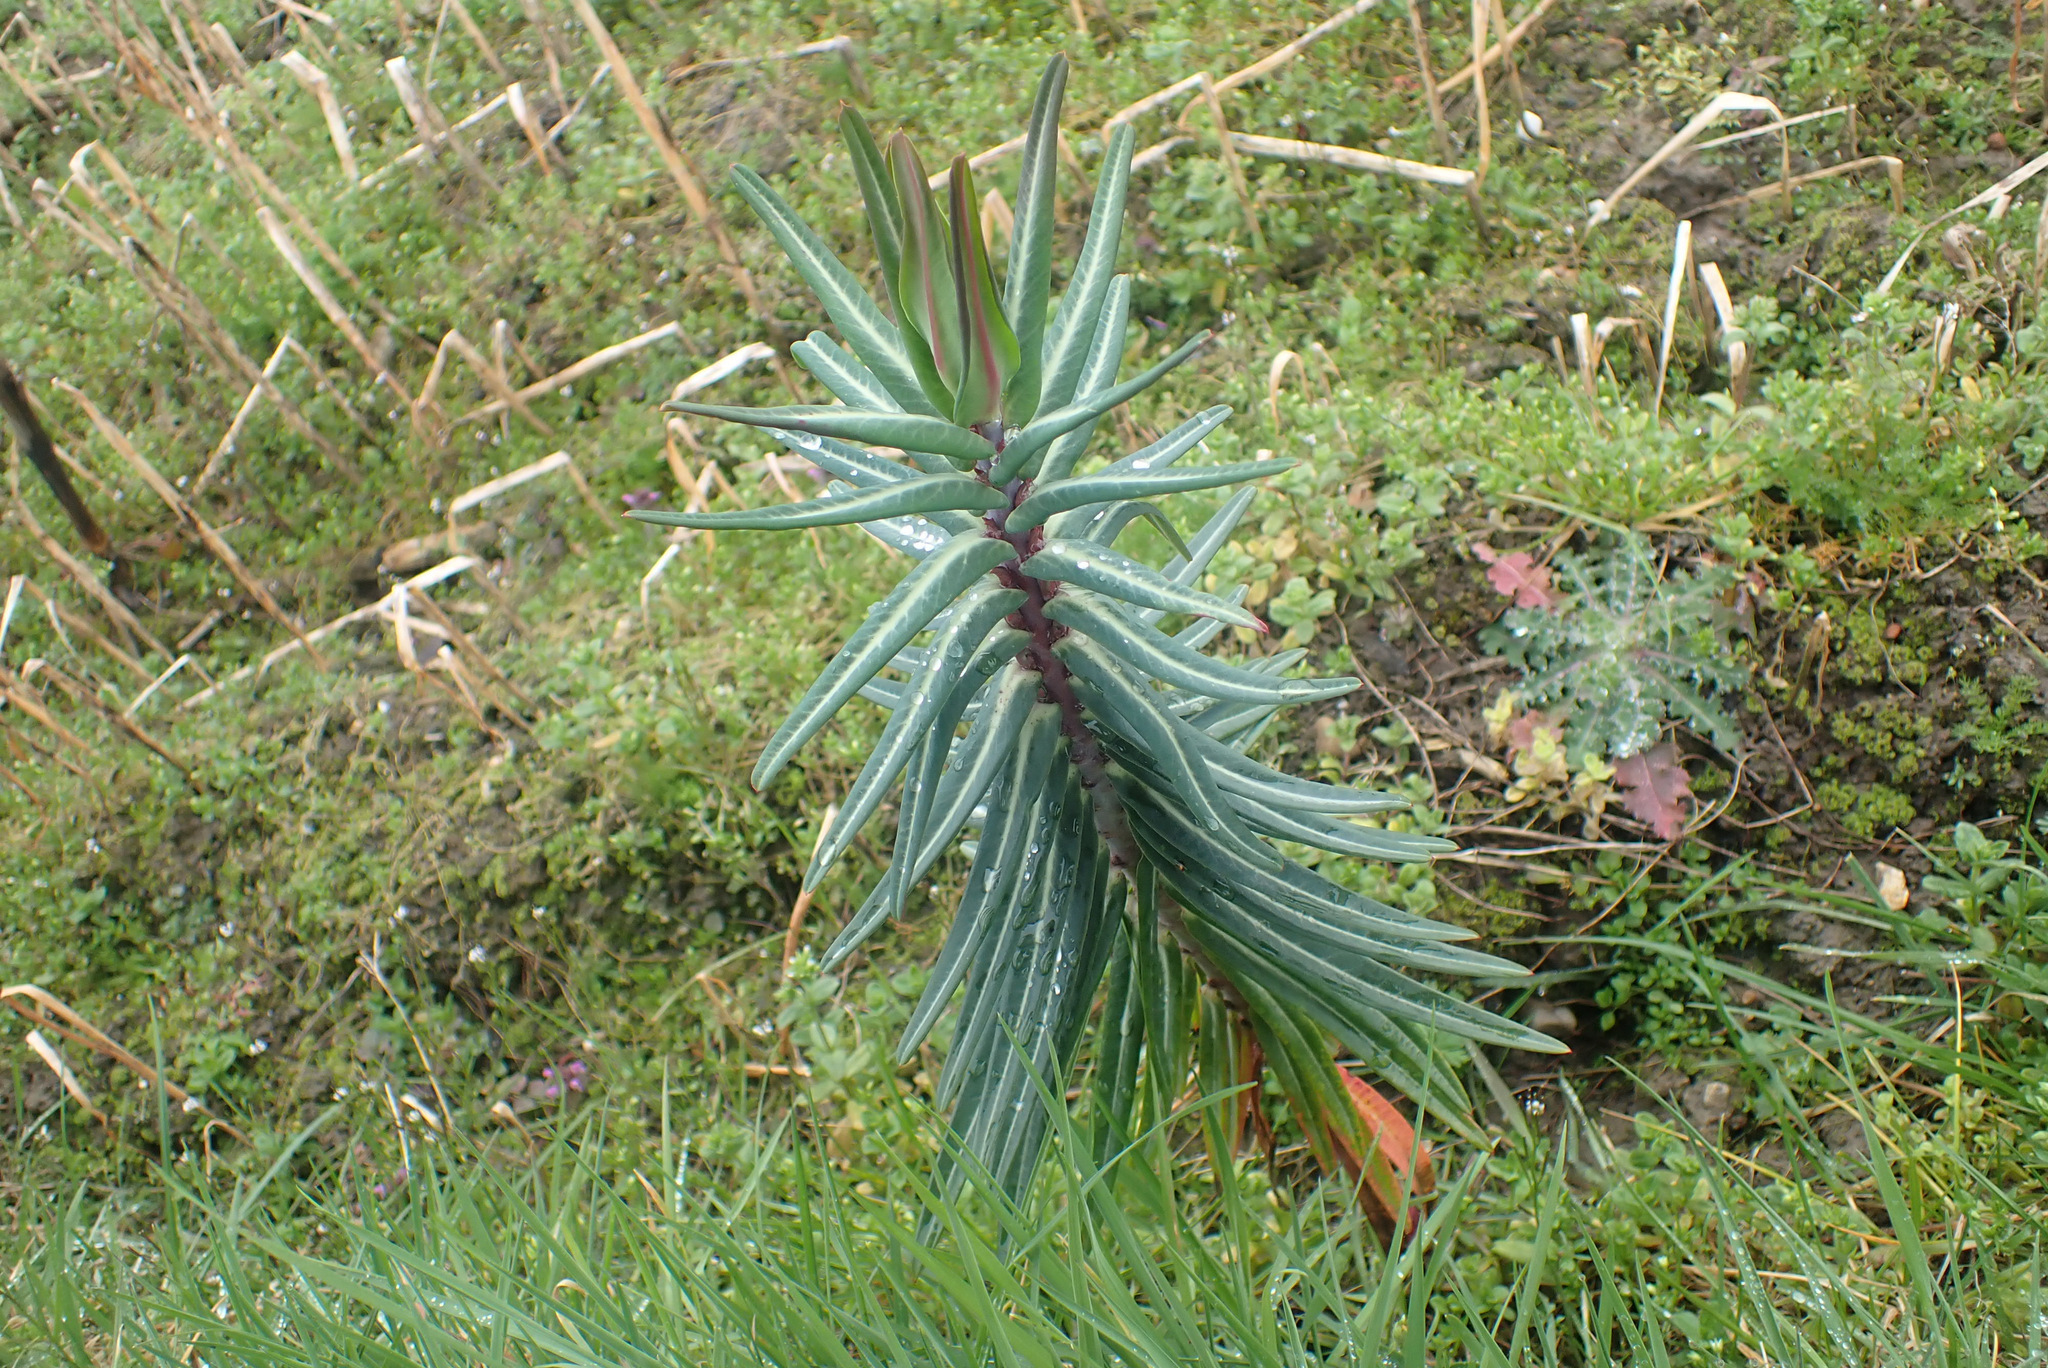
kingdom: Plantae
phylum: Tracheophyta
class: Magnoliopsida
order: Malpighiales
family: Euphorbiaceae
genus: Euphorbia
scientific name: Euphorbia lathyris
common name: Caper spurge
